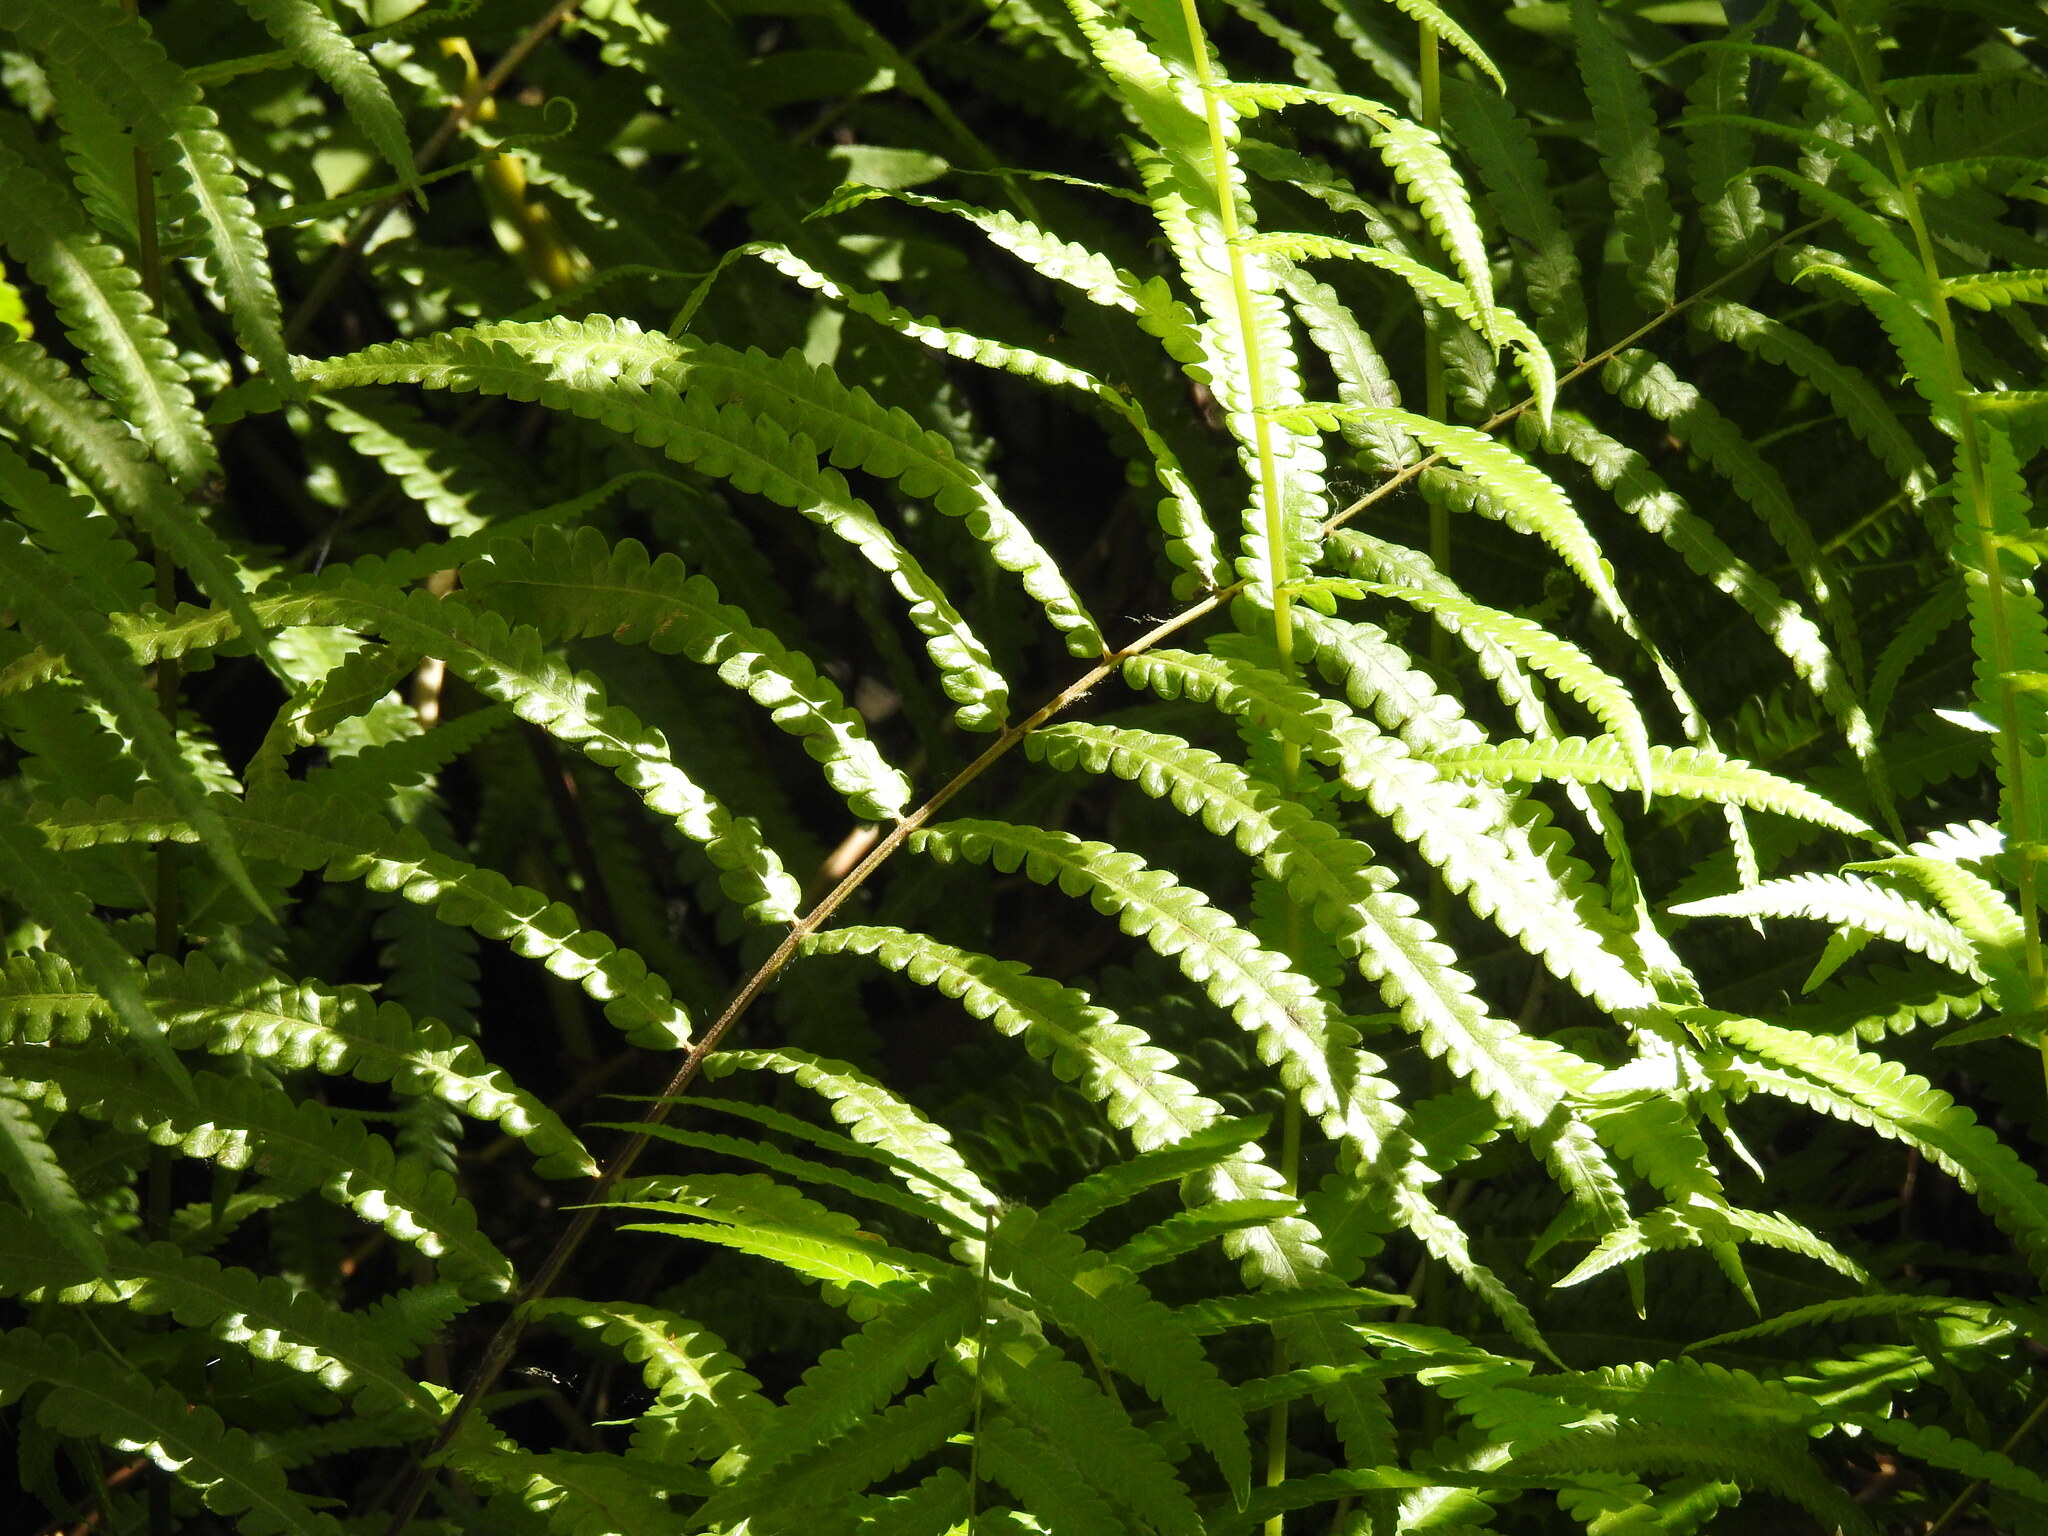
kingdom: Plantae
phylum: Tracheophyta
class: Polypodiopsida
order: Polypodiales
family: Thelypteridaceae
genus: Cyclosorus
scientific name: Cyclosorus interruptus
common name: Neke fern
